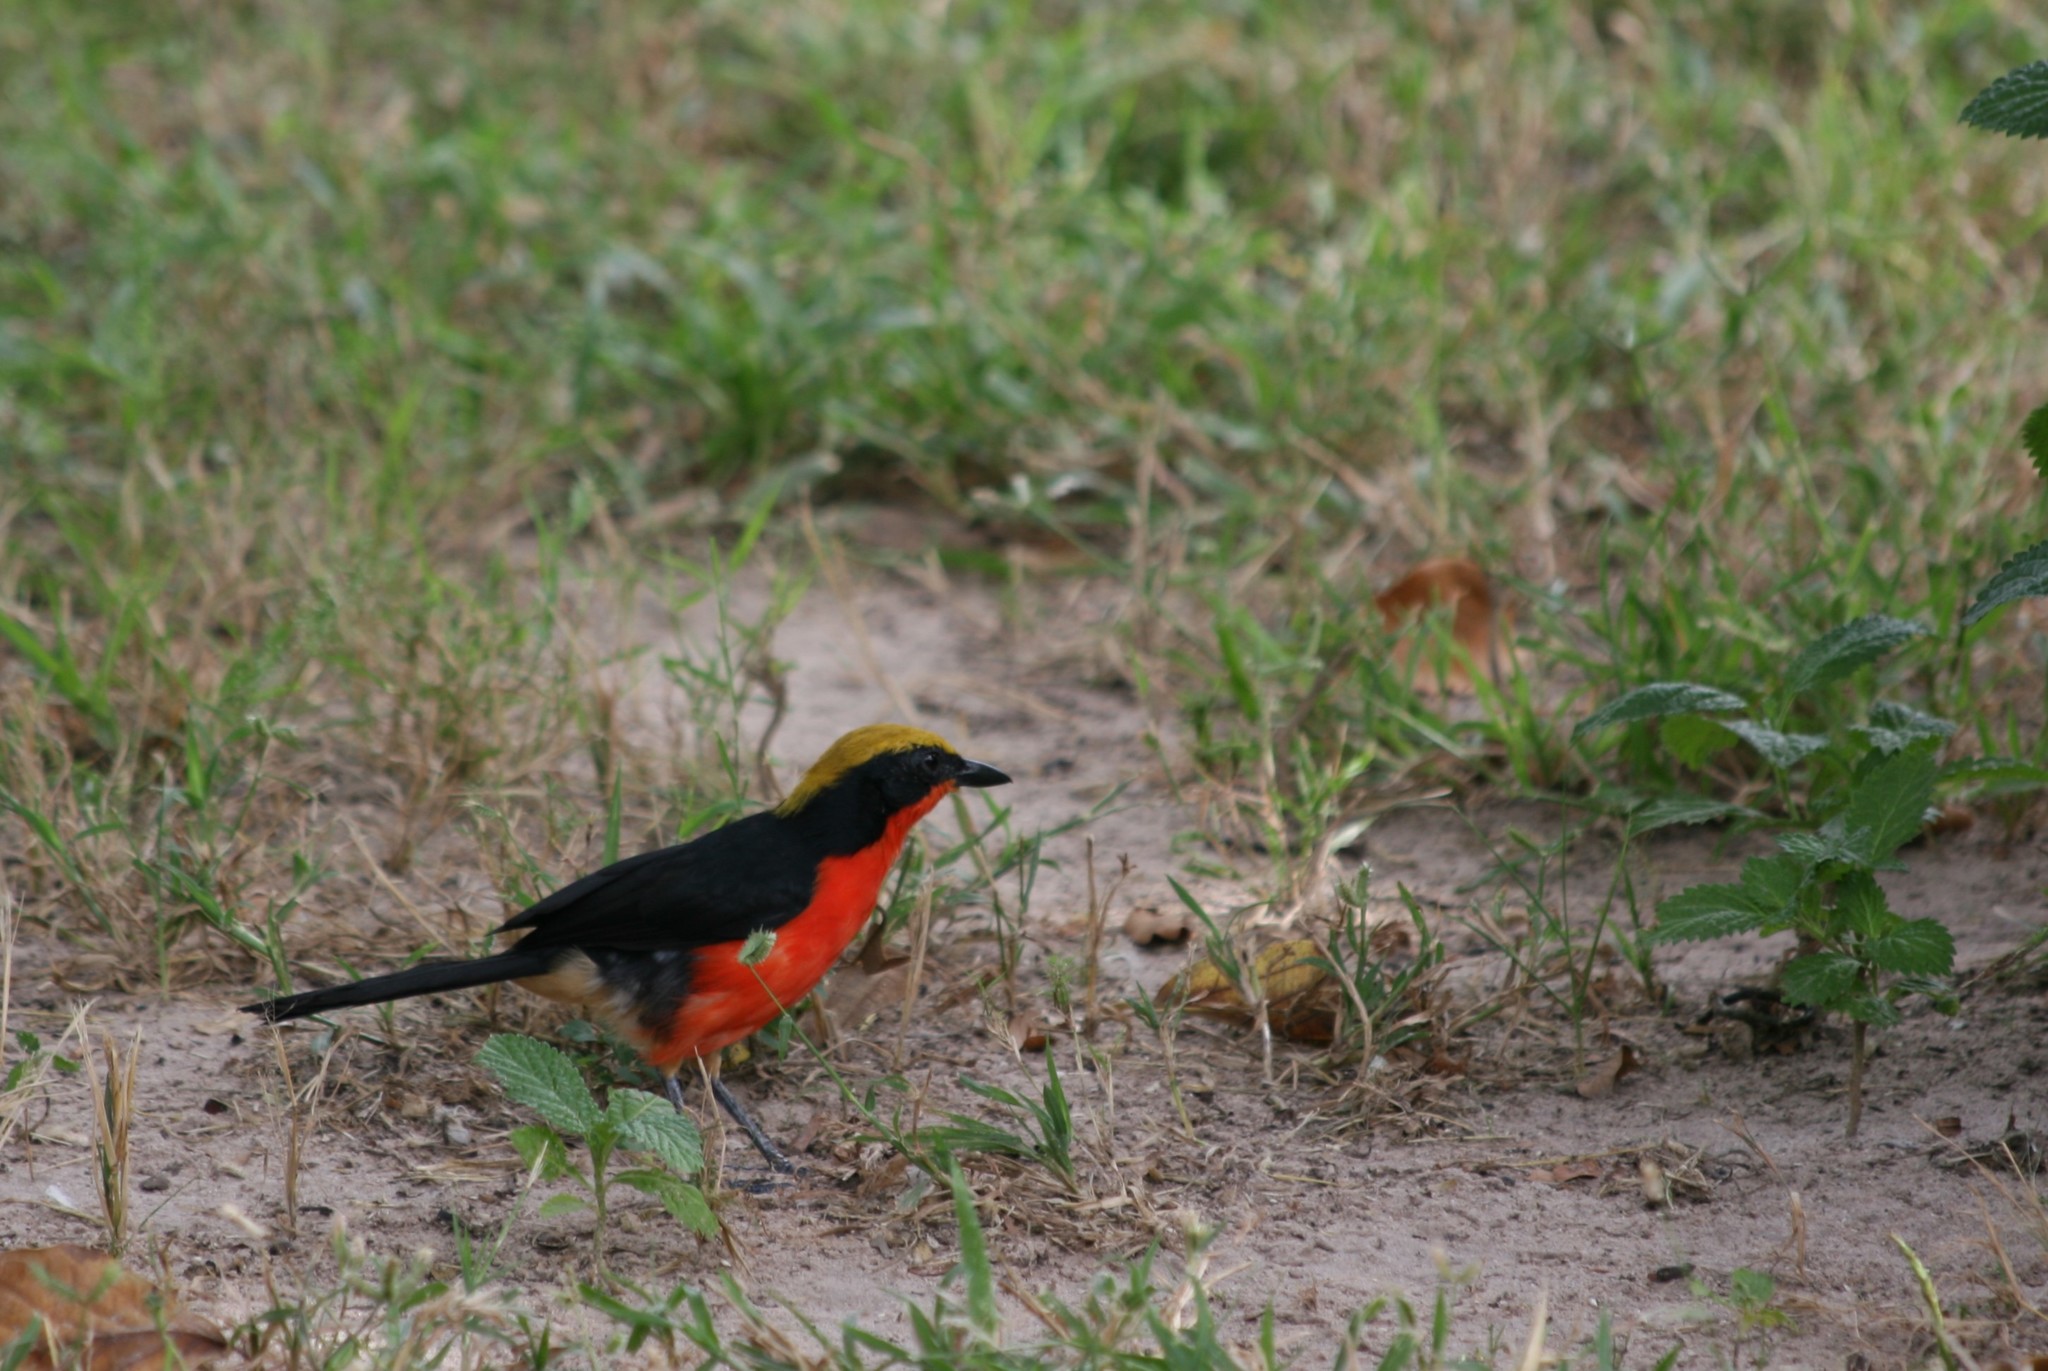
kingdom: Animalia
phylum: Chordata
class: Aves
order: Passeriformes
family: Malaconotidae
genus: Laniarius
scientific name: Laniarius barbarus
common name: Yellow-crowned gonolek
